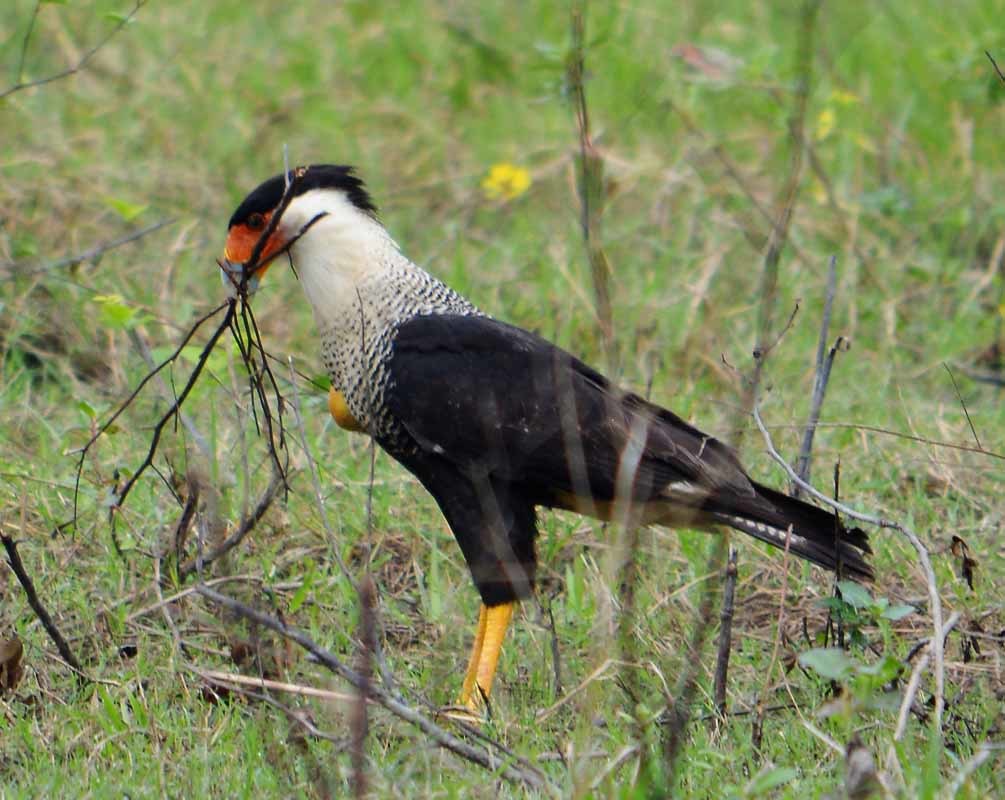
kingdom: Animalia
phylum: Chordata
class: Aves
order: Falconiformes
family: Falconidae
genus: Caracara
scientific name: Caracara plancus
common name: Southern caracara
